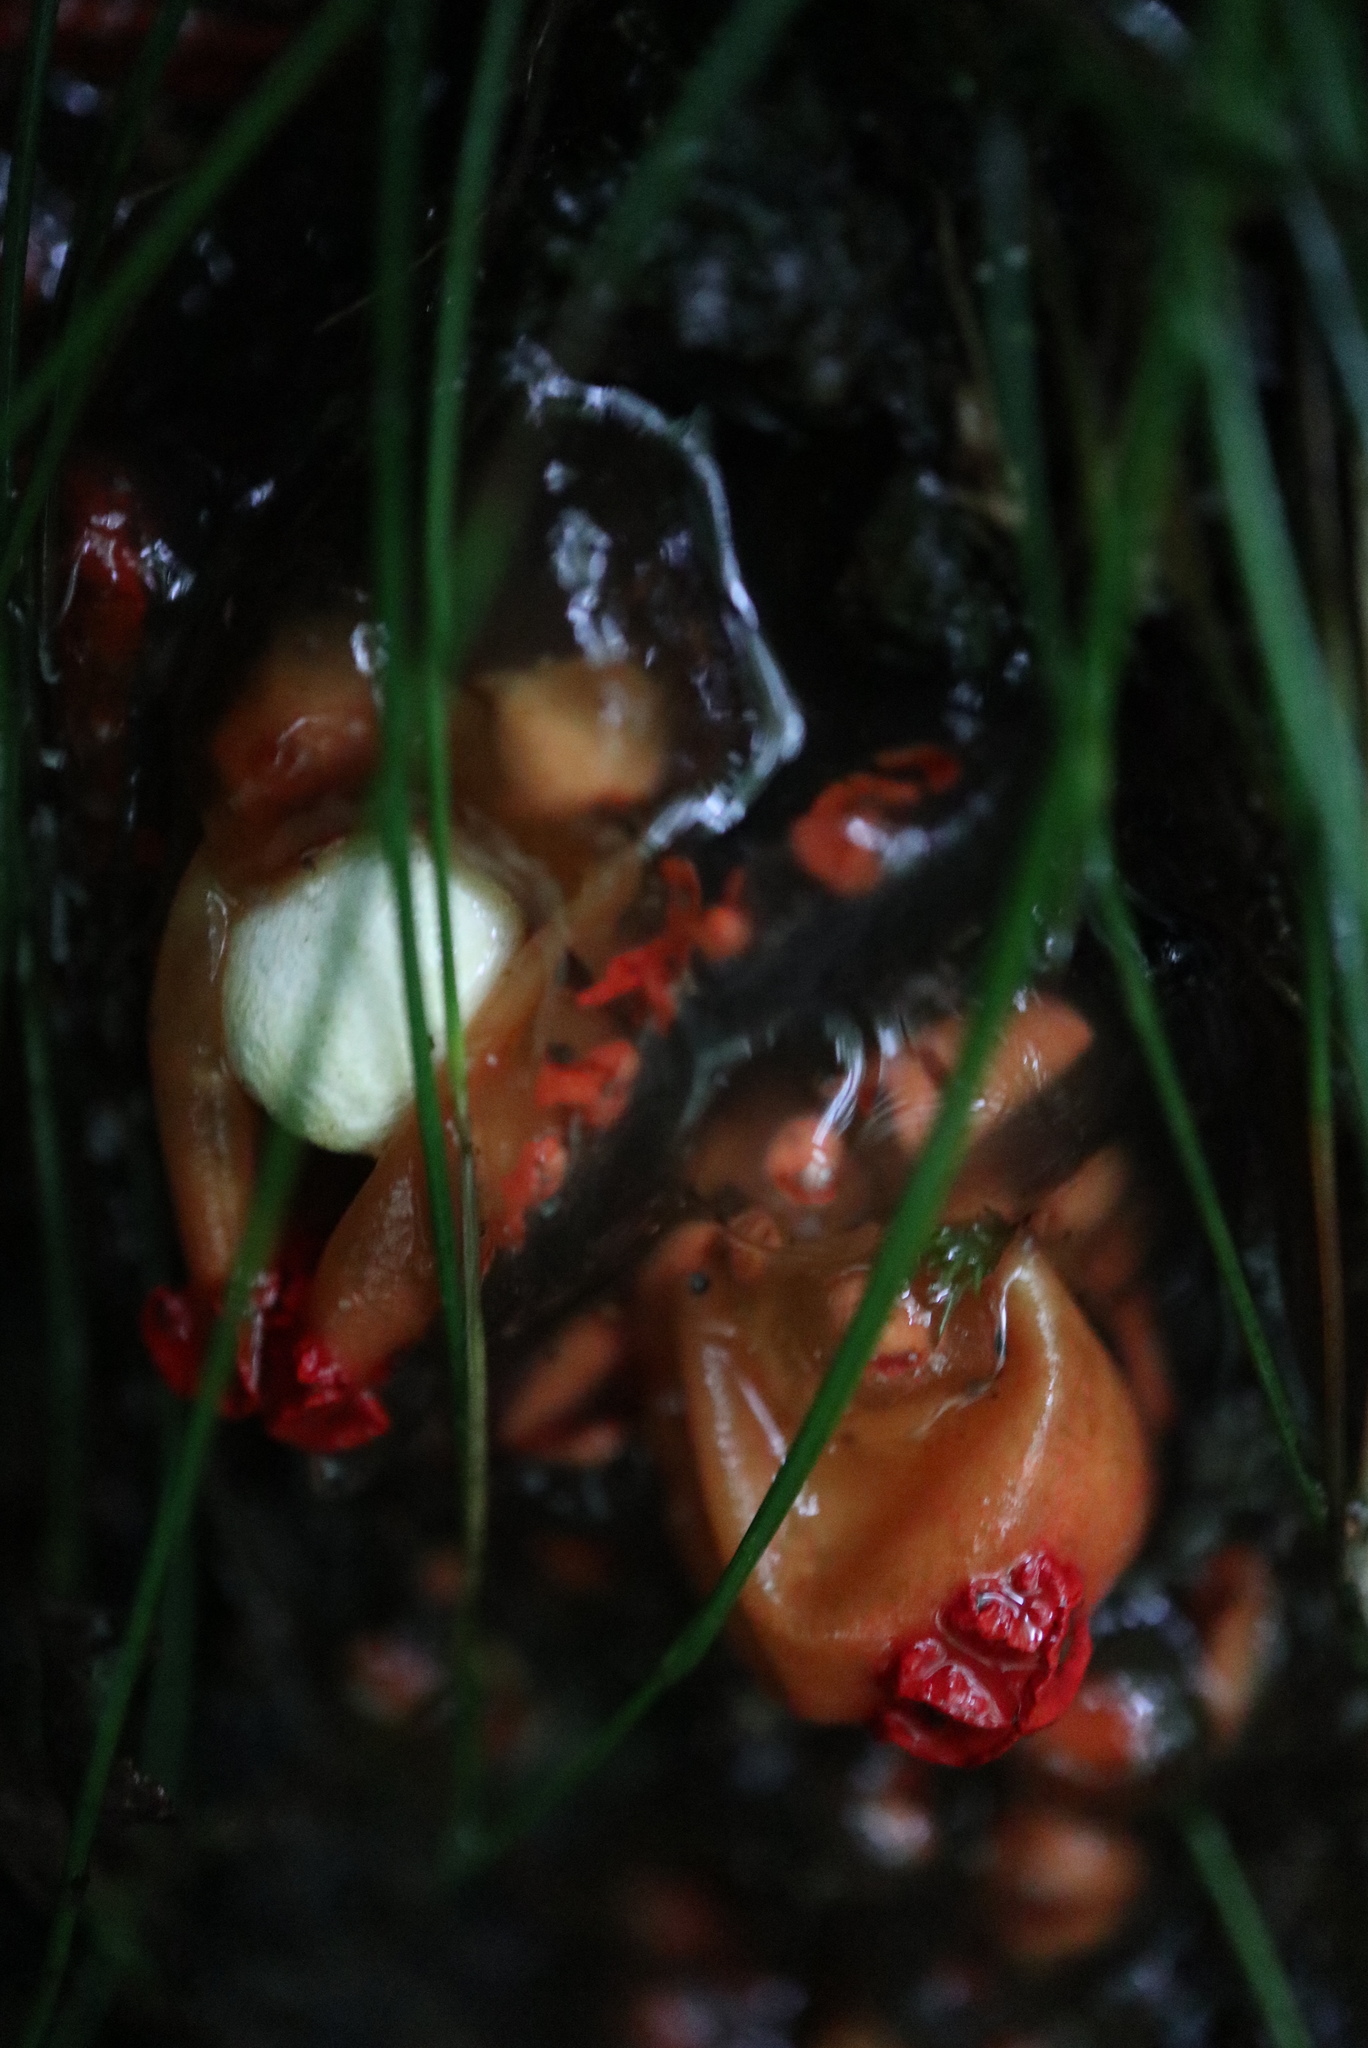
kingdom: Fungi
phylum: Basidiomycota
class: Agaricomycetes
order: Boletales
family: Calostomataceae
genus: Calostoma
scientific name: Calostoma cinnabarinum
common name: Stalked puffball-in-aspic
